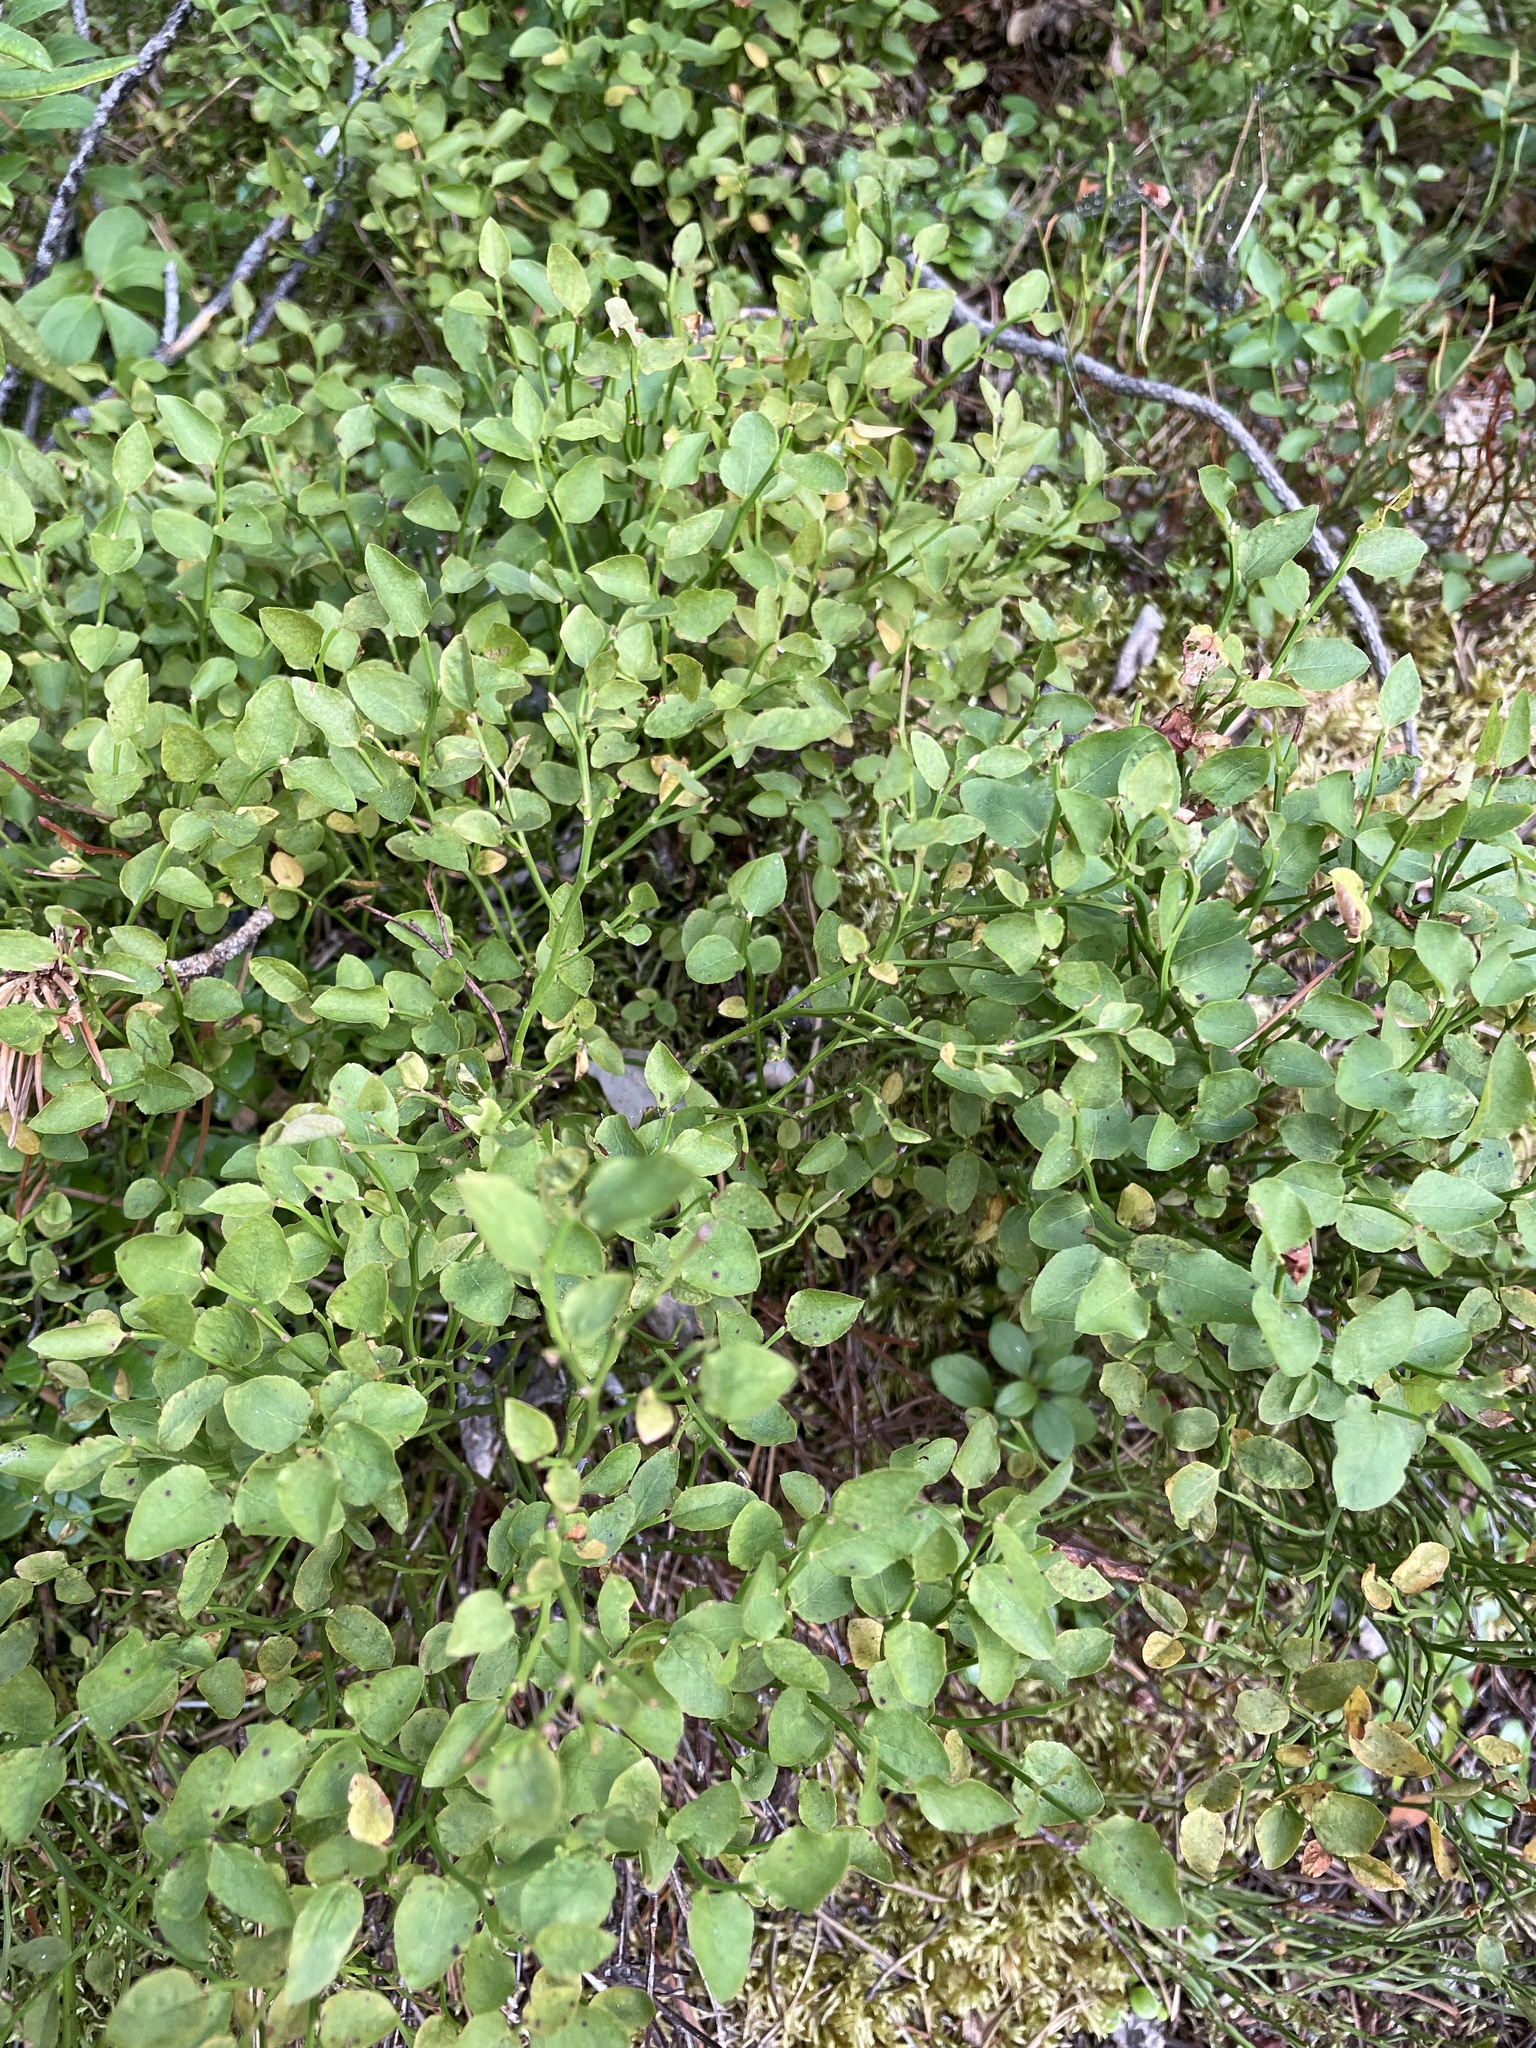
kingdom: Plantae
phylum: Tracheophyta
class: Magnoliopsida
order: Ericales
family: Ericaceae
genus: Vaccinium
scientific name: Vaccinium scoparium
